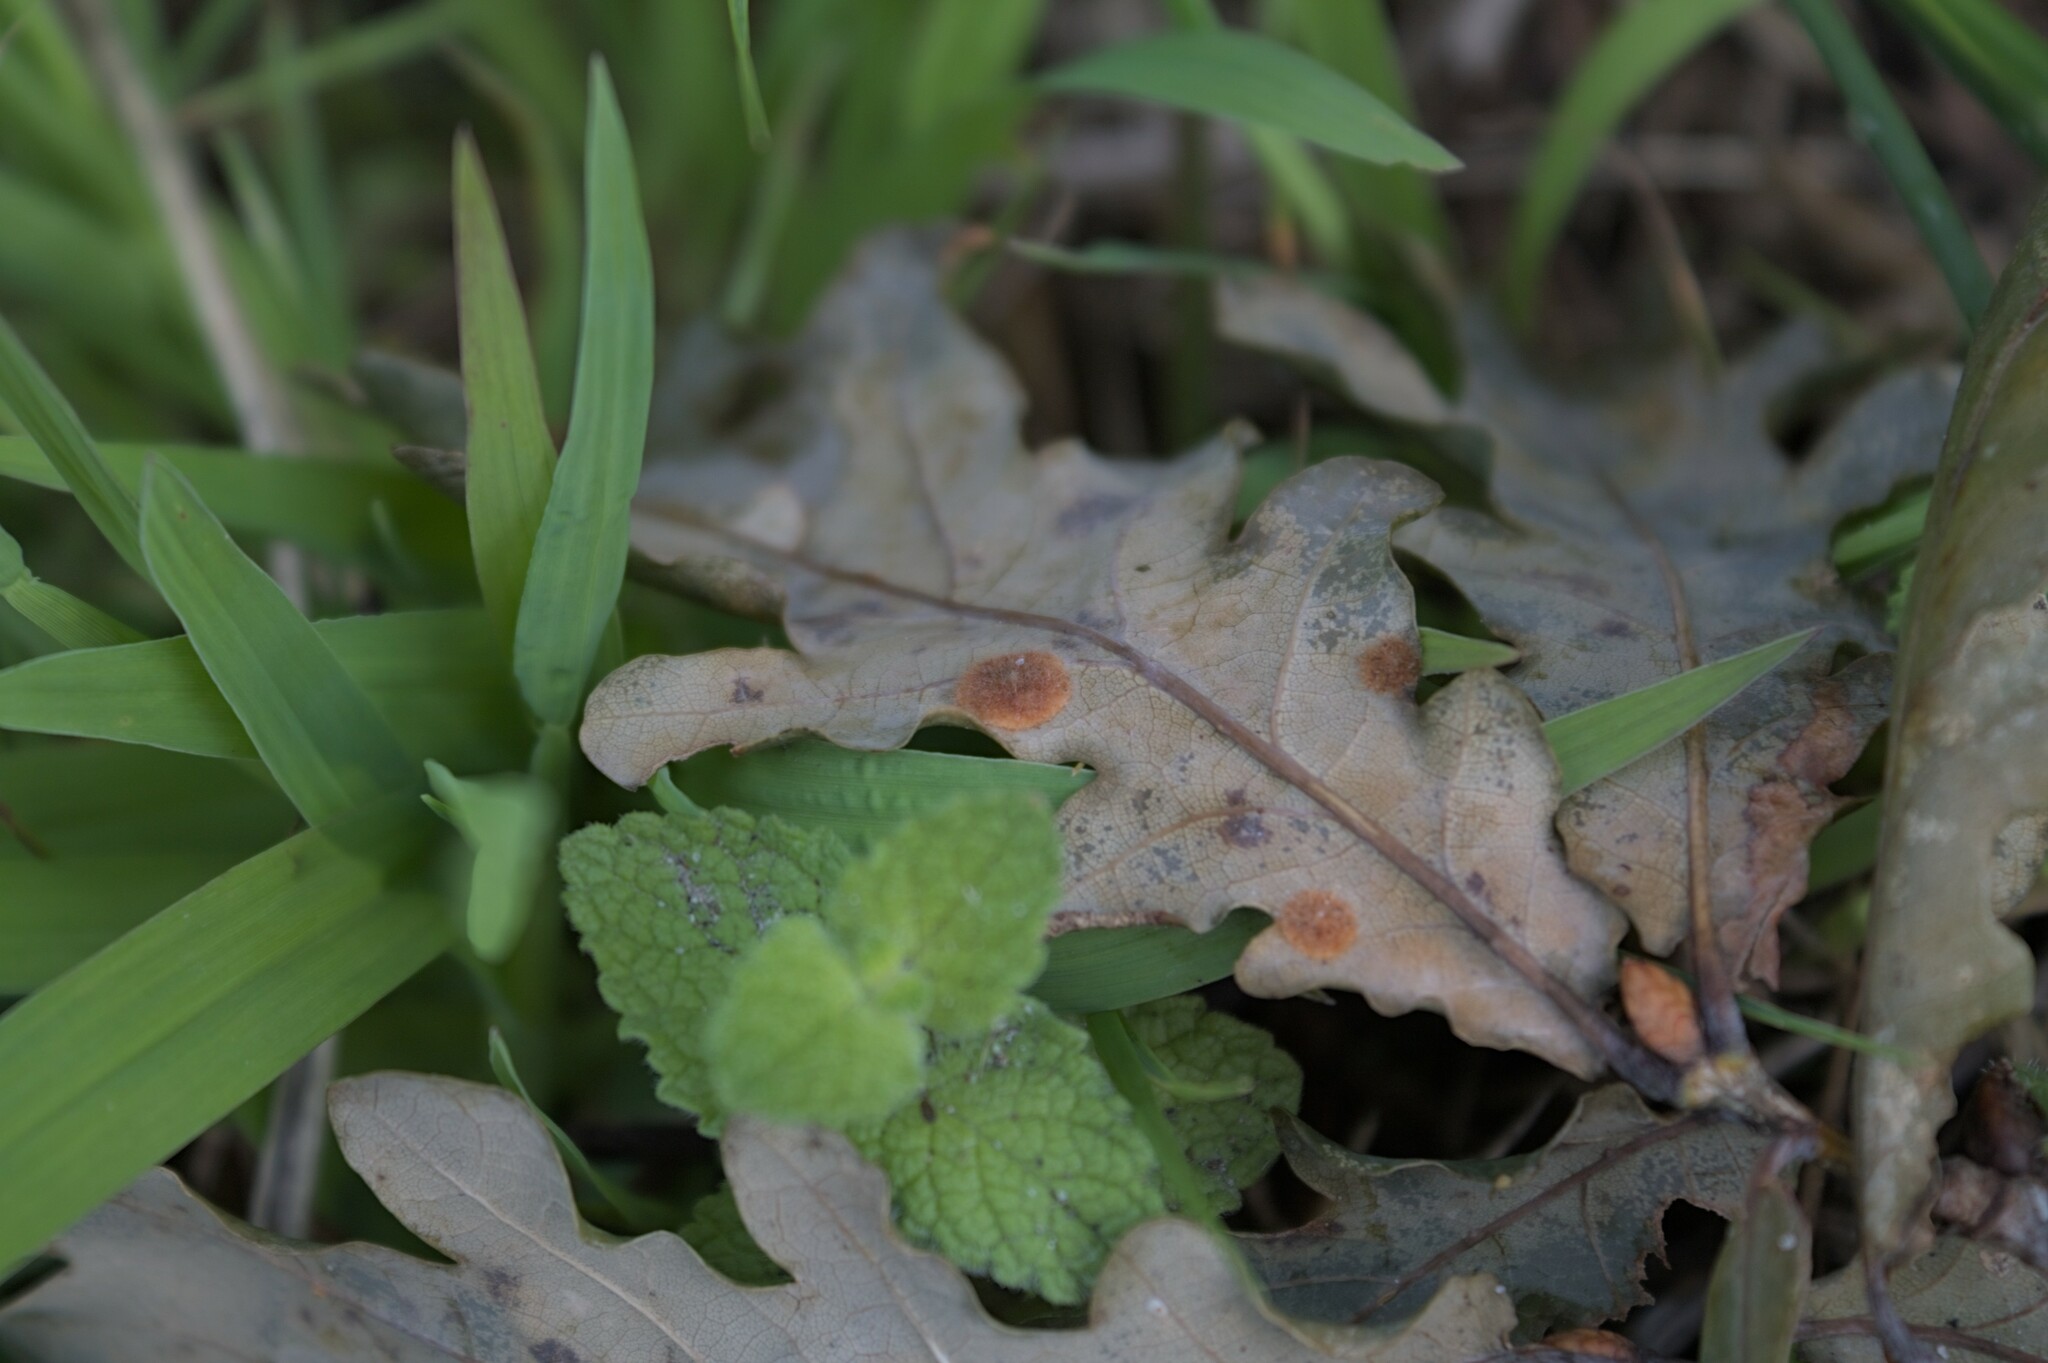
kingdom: Animalia
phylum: Arthropoda
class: Insecta
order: Hymenoptera
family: Cynipidae
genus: Neuroterus
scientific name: Neuroterus quercusbaccarum
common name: Common spangle gall
